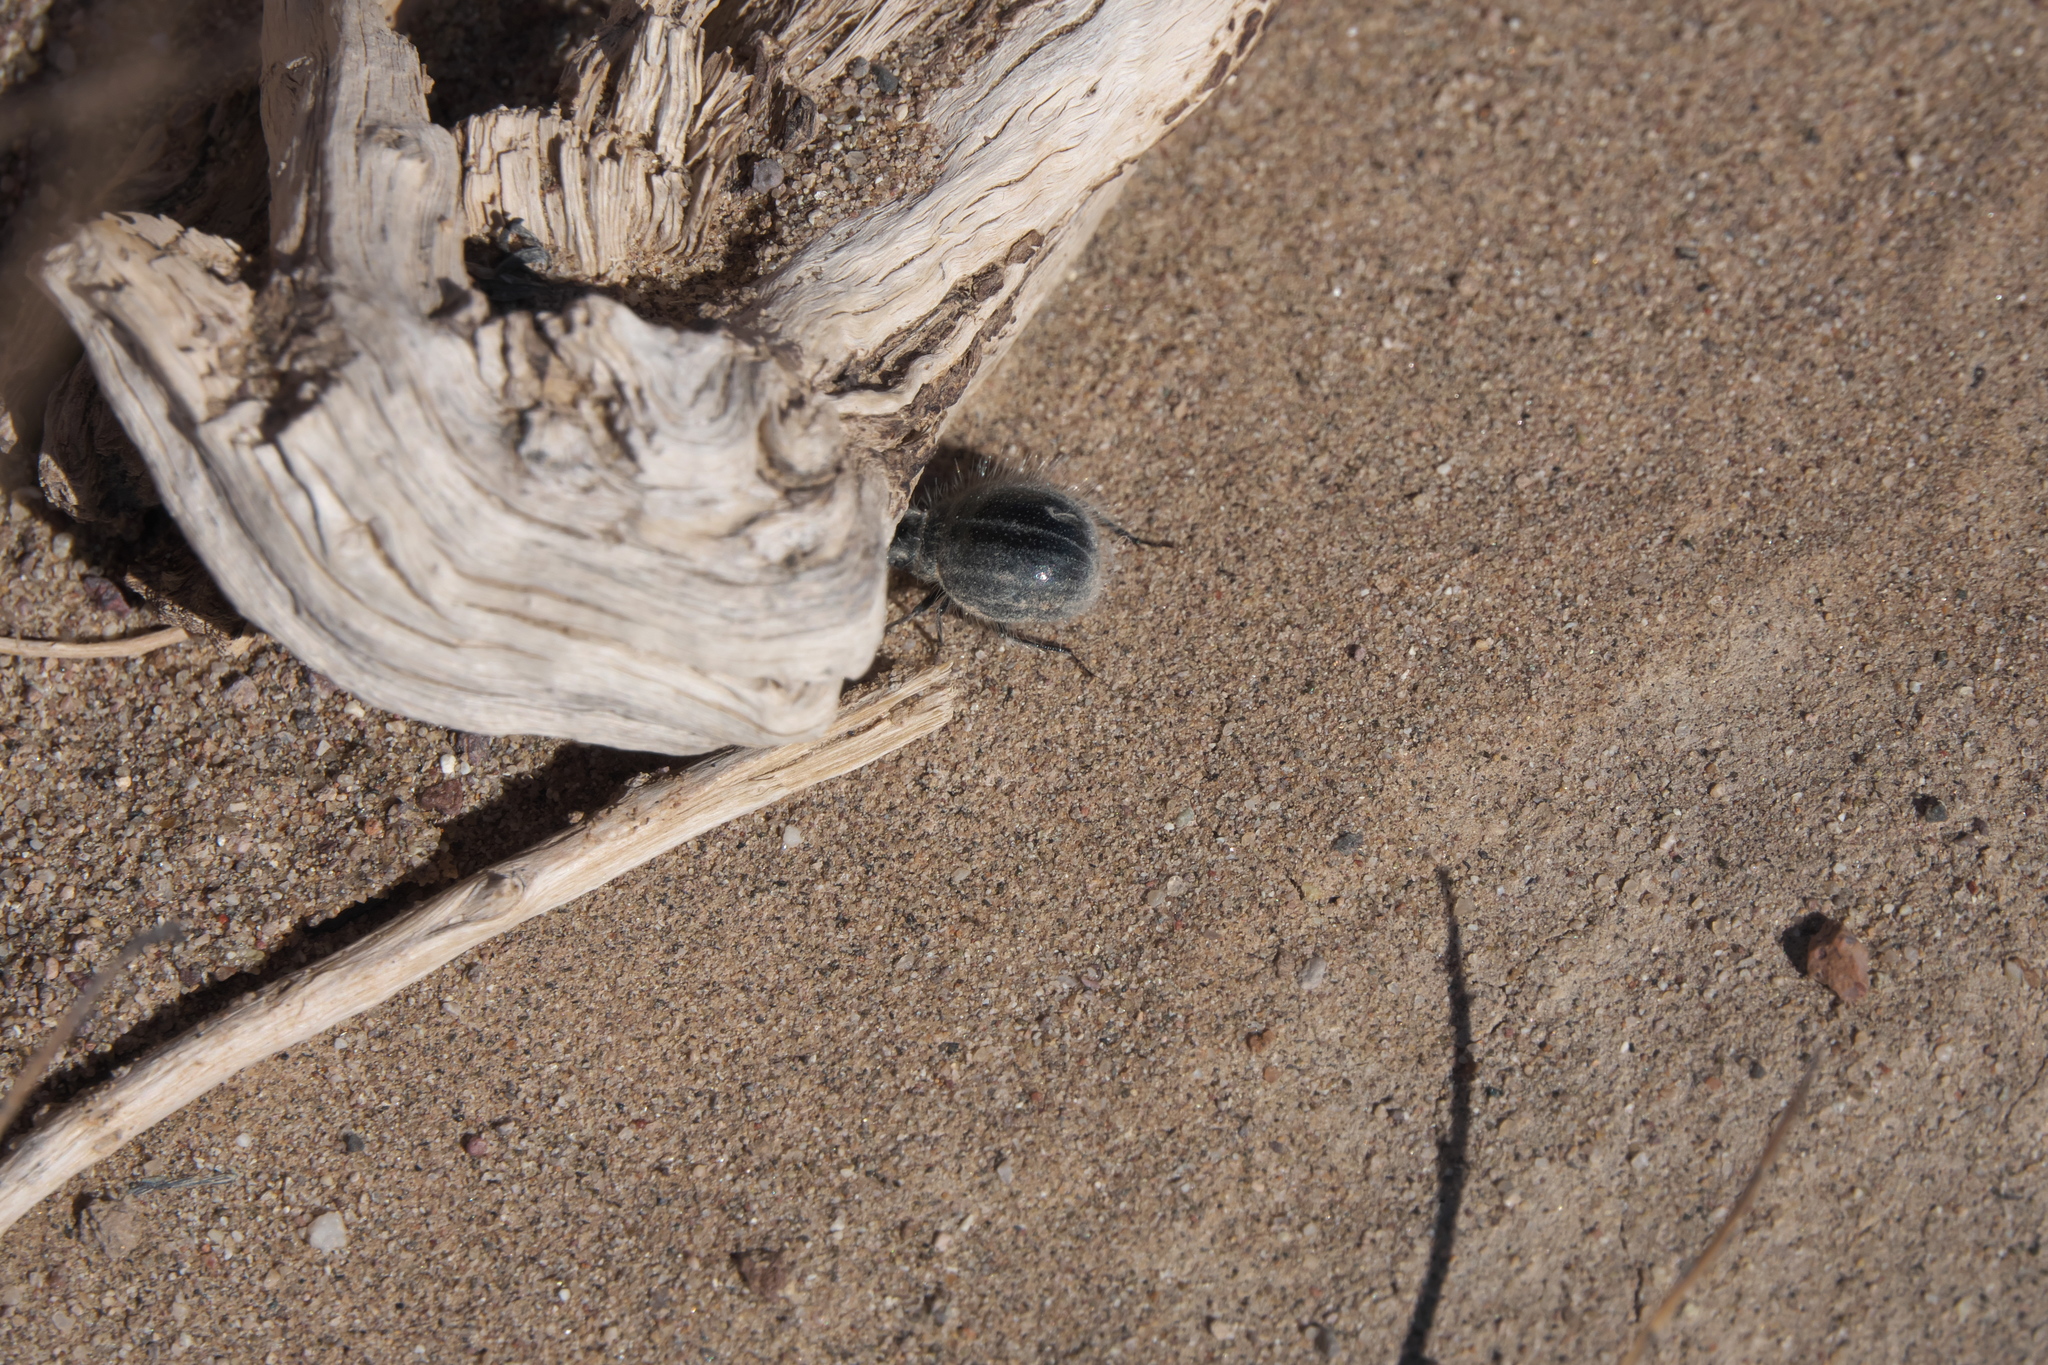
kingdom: Animalia
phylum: Arthropoda
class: Insecta
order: Coleoptera
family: Tenebrionidae
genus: Edrotes
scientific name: Edrotes ventricosus
